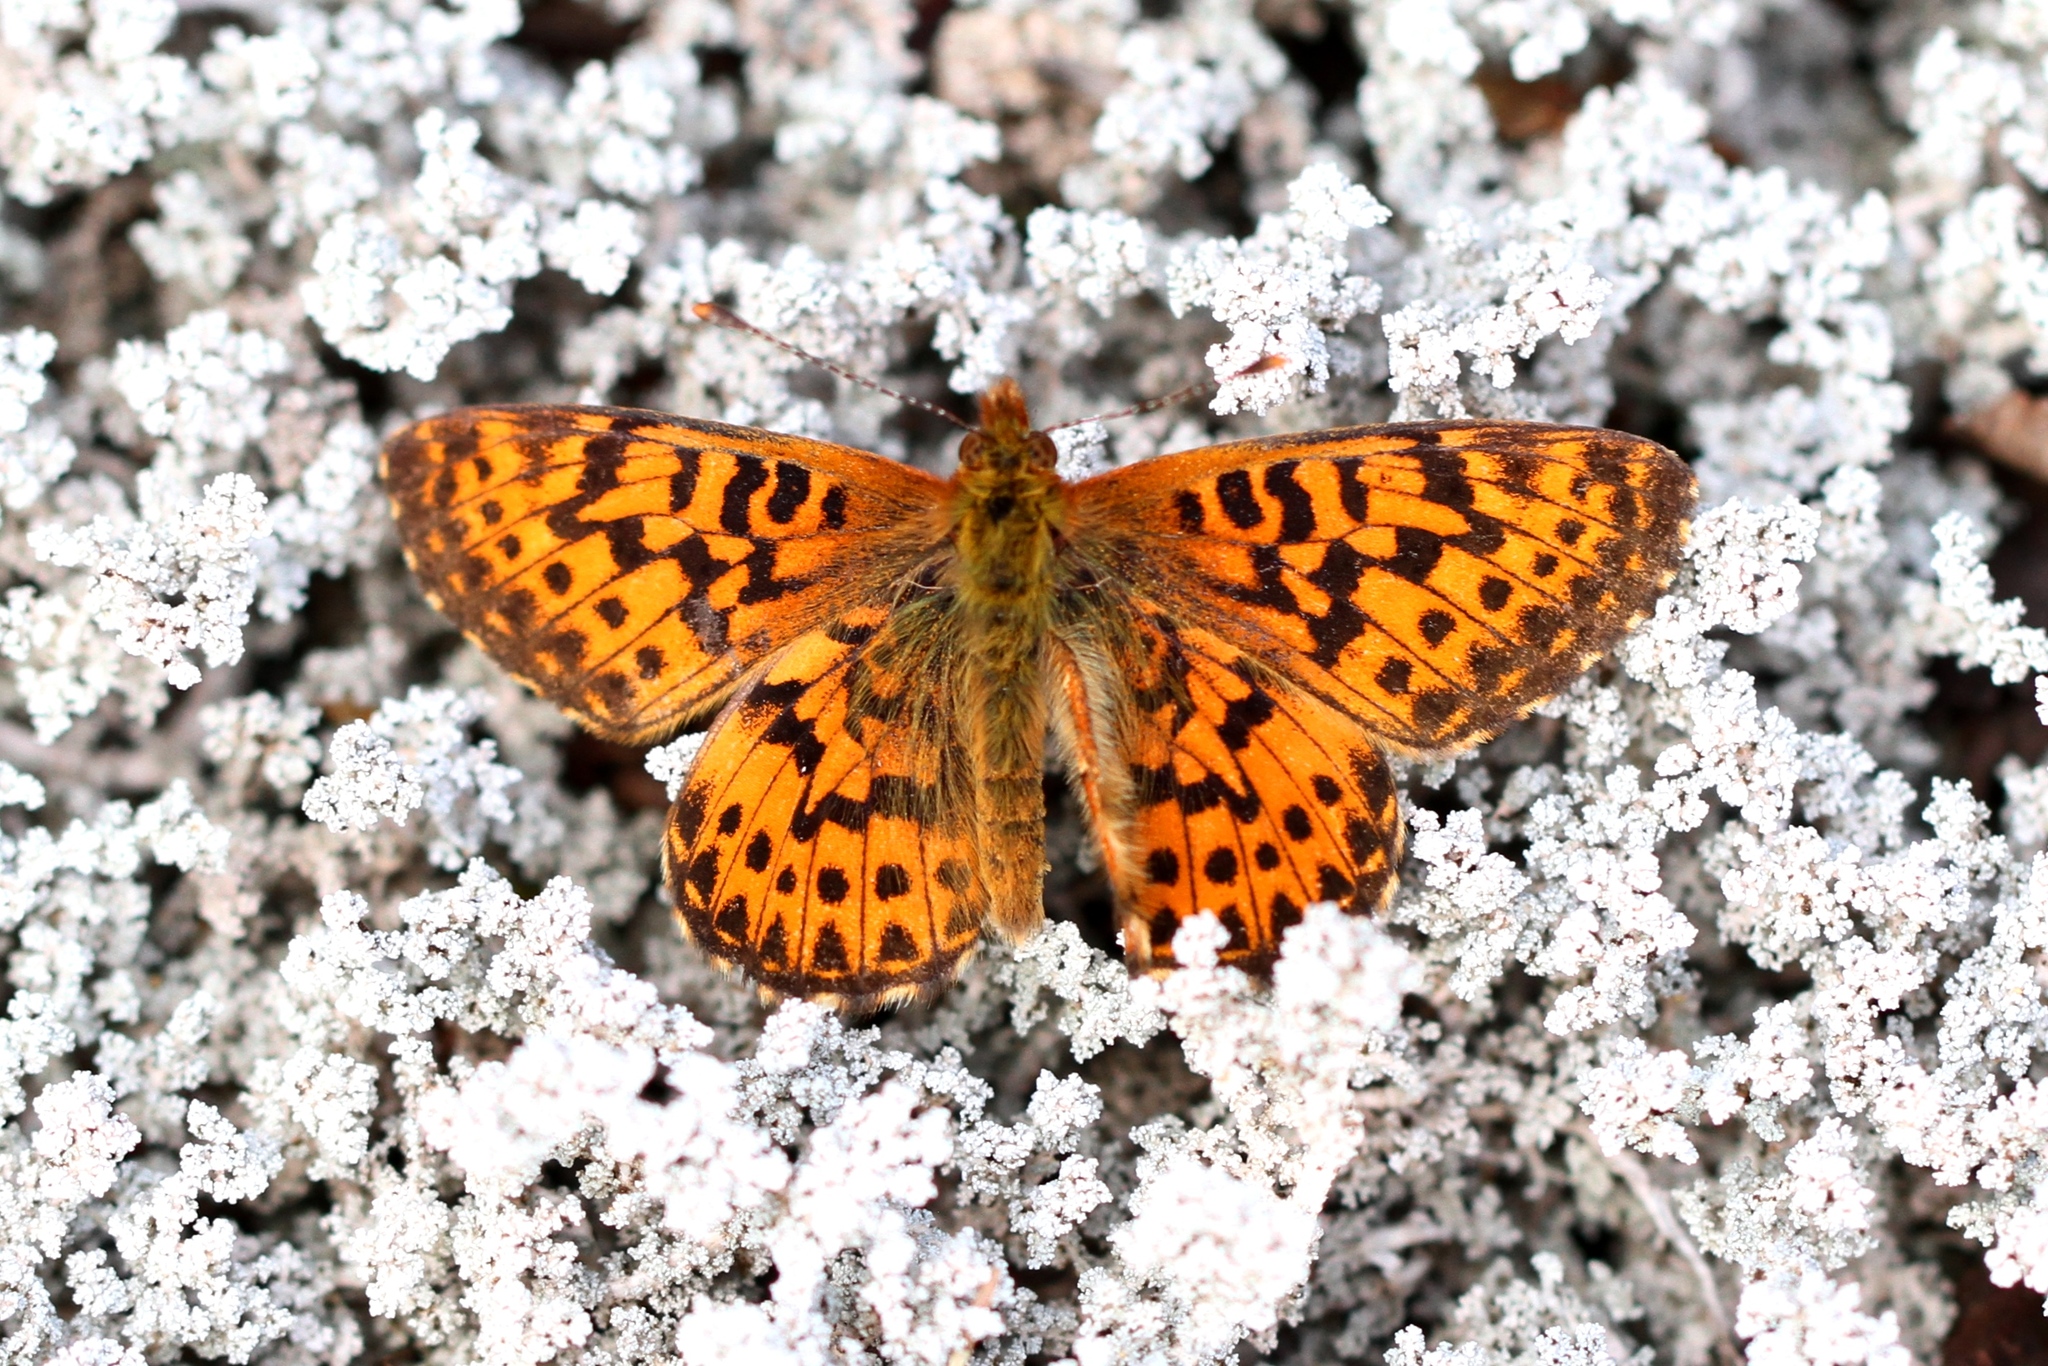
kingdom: Animalia
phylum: Arthropoda
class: Insecta
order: Lepidoptera
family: Nymphalidae
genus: Clossiana
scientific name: Clossiana chariclea
